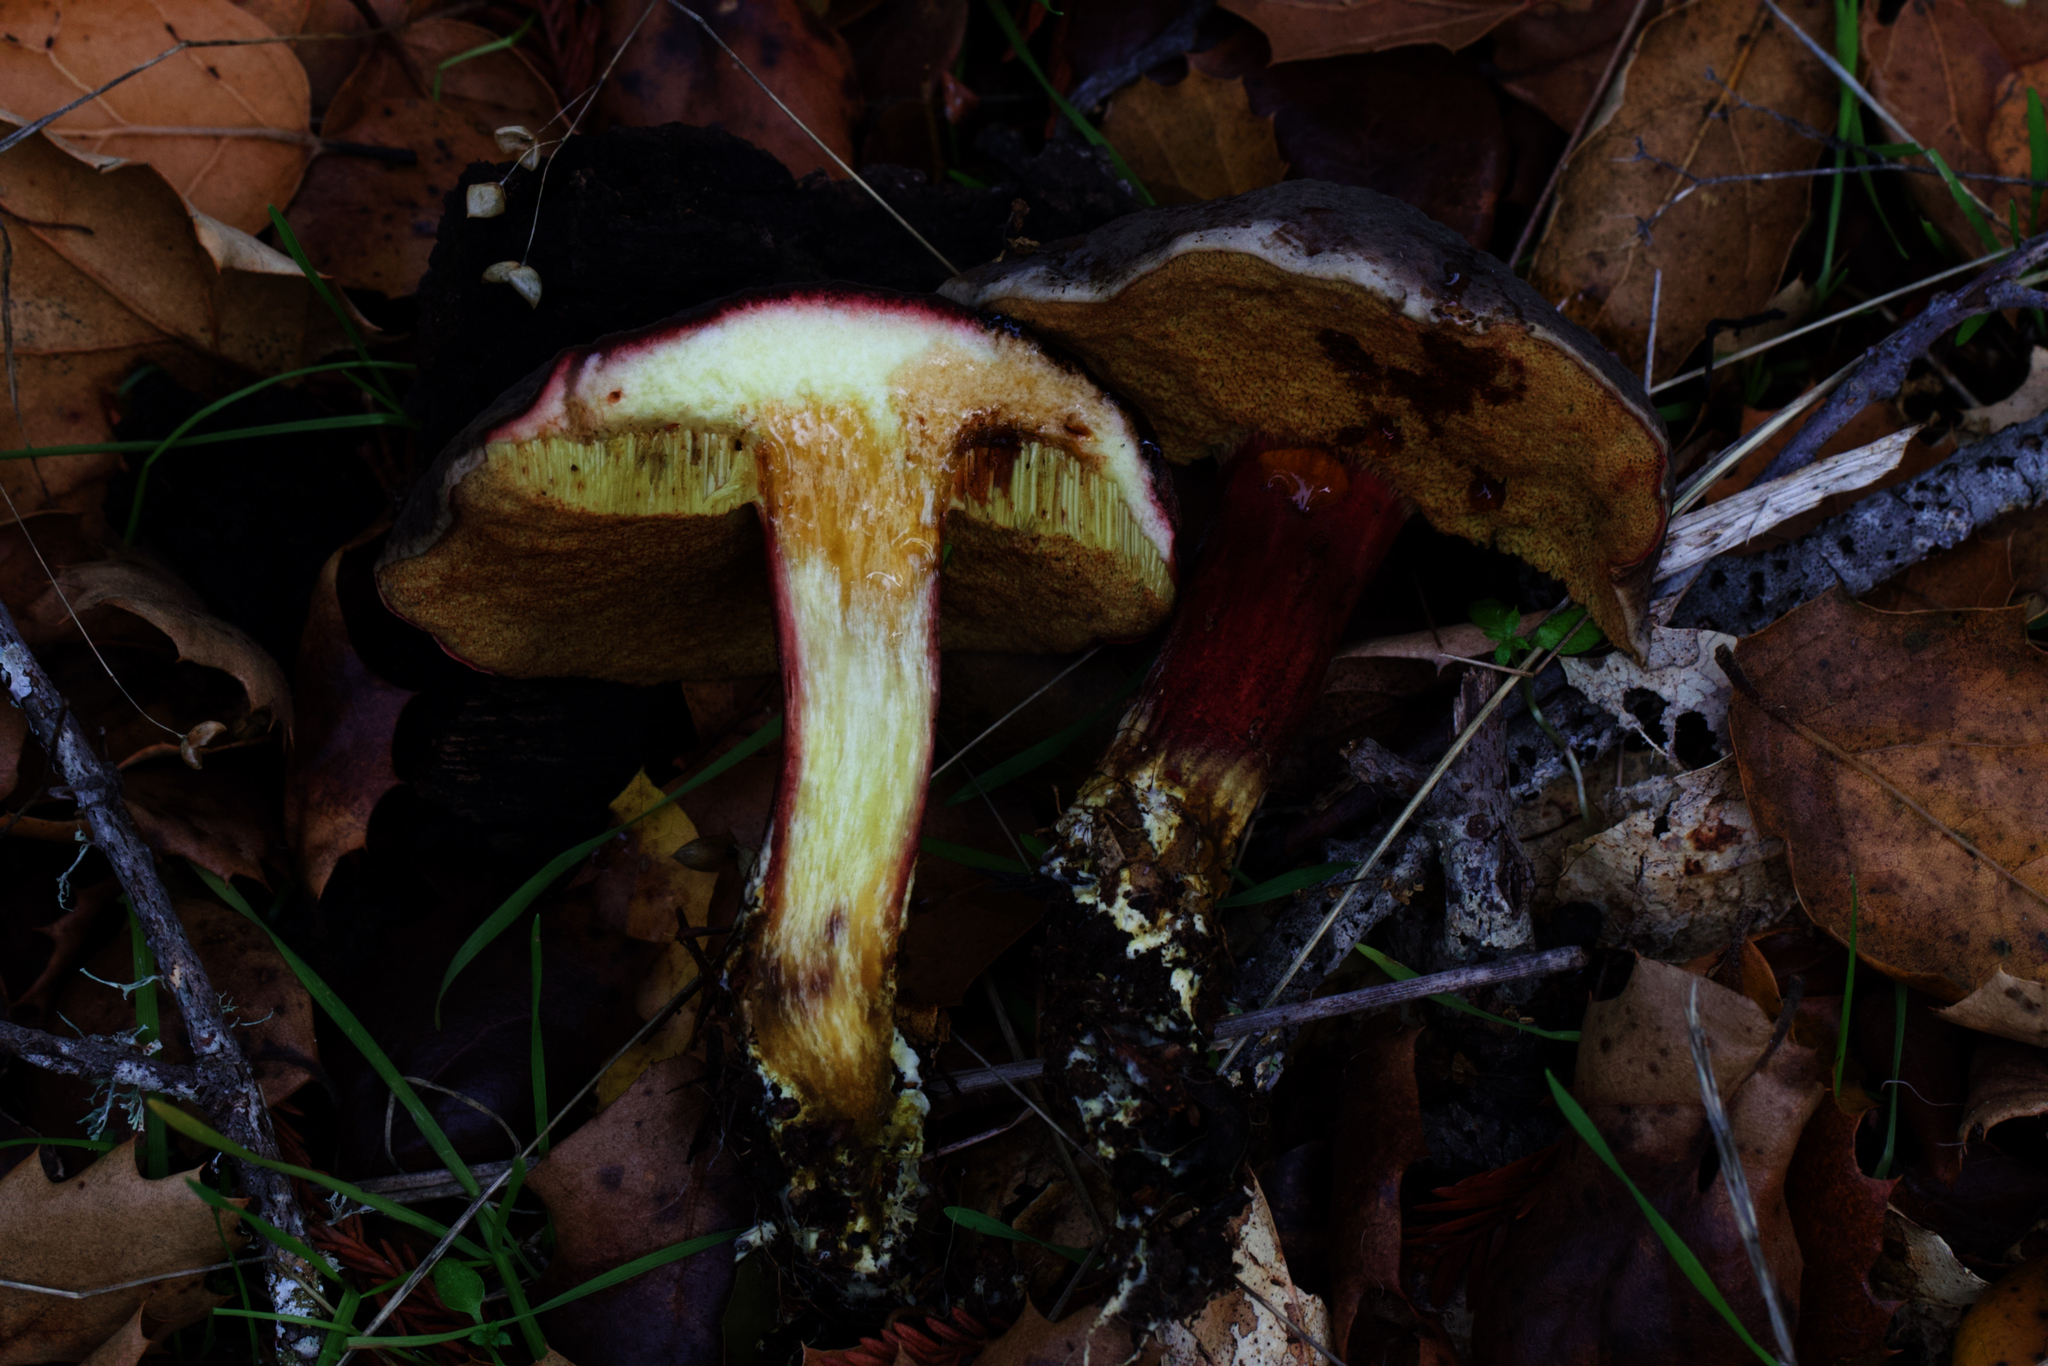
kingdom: Fungi
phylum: Basidiomycota
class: Agaricomycetes
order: Boletales
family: Boletaceae
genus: Xerocomellus
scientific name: Xerocomellus atropurpureus
